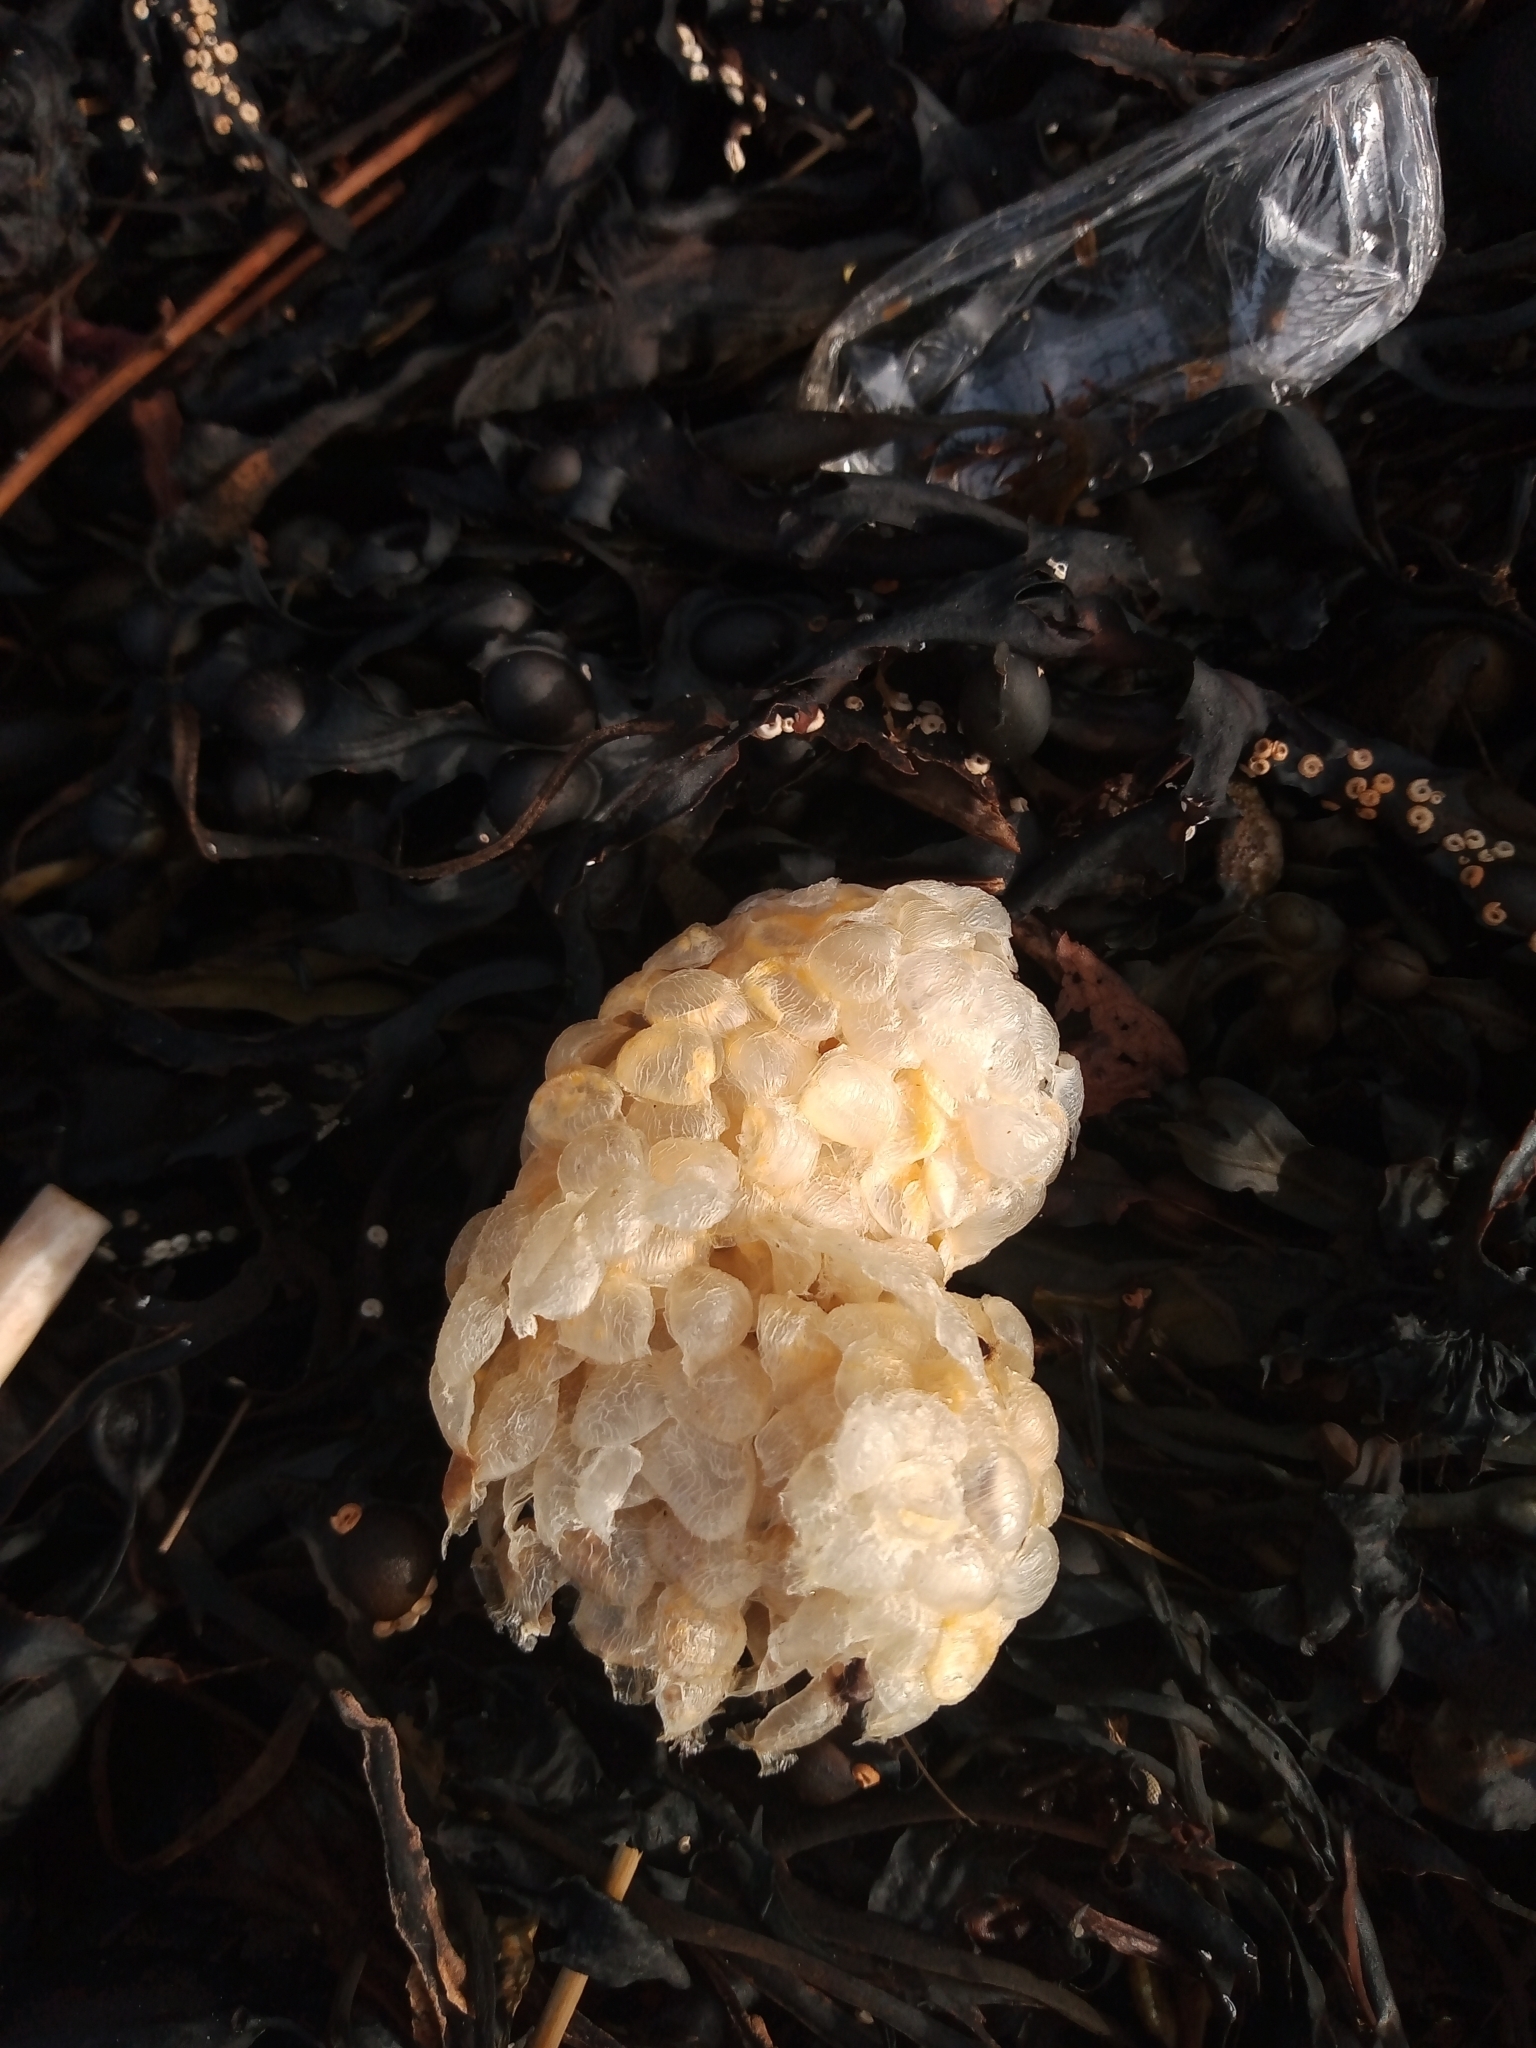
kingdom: Animalia
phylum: Mollusca
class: Gastropoda
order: Neogastropoda
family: Buccinidae
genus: Buccinum
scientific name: Buccinum undatum
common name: Common whelk
